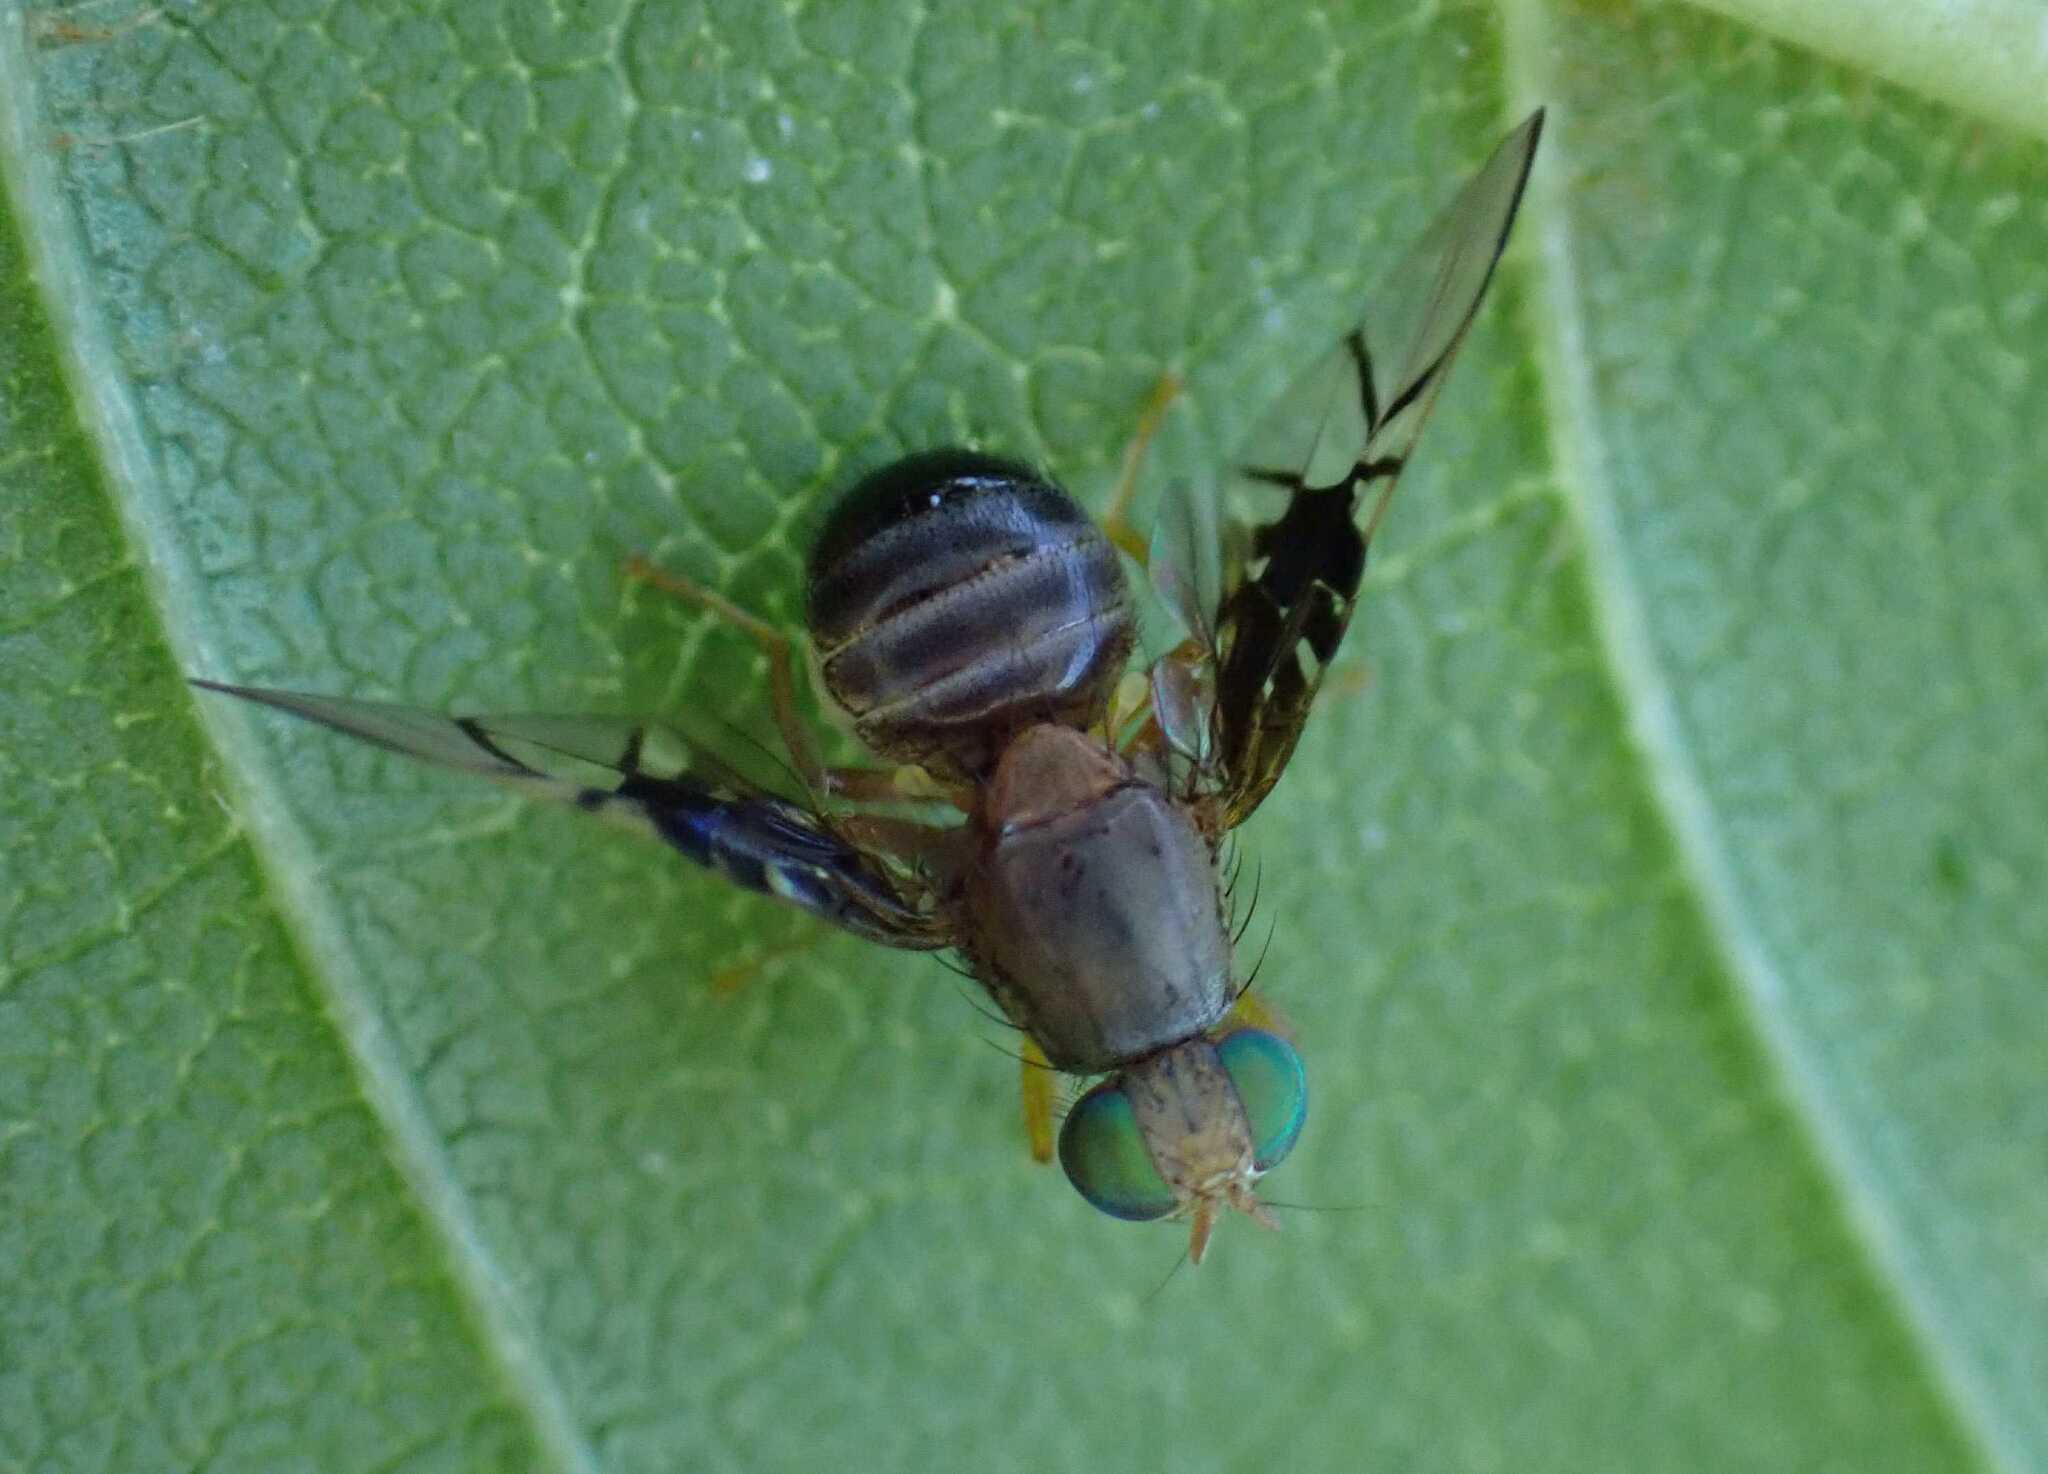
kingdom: Animalia
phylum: Arthropoda
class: Insecta
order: Diptera
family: Tephritidae
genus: Anomoia
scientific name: Anomoia purmunda
